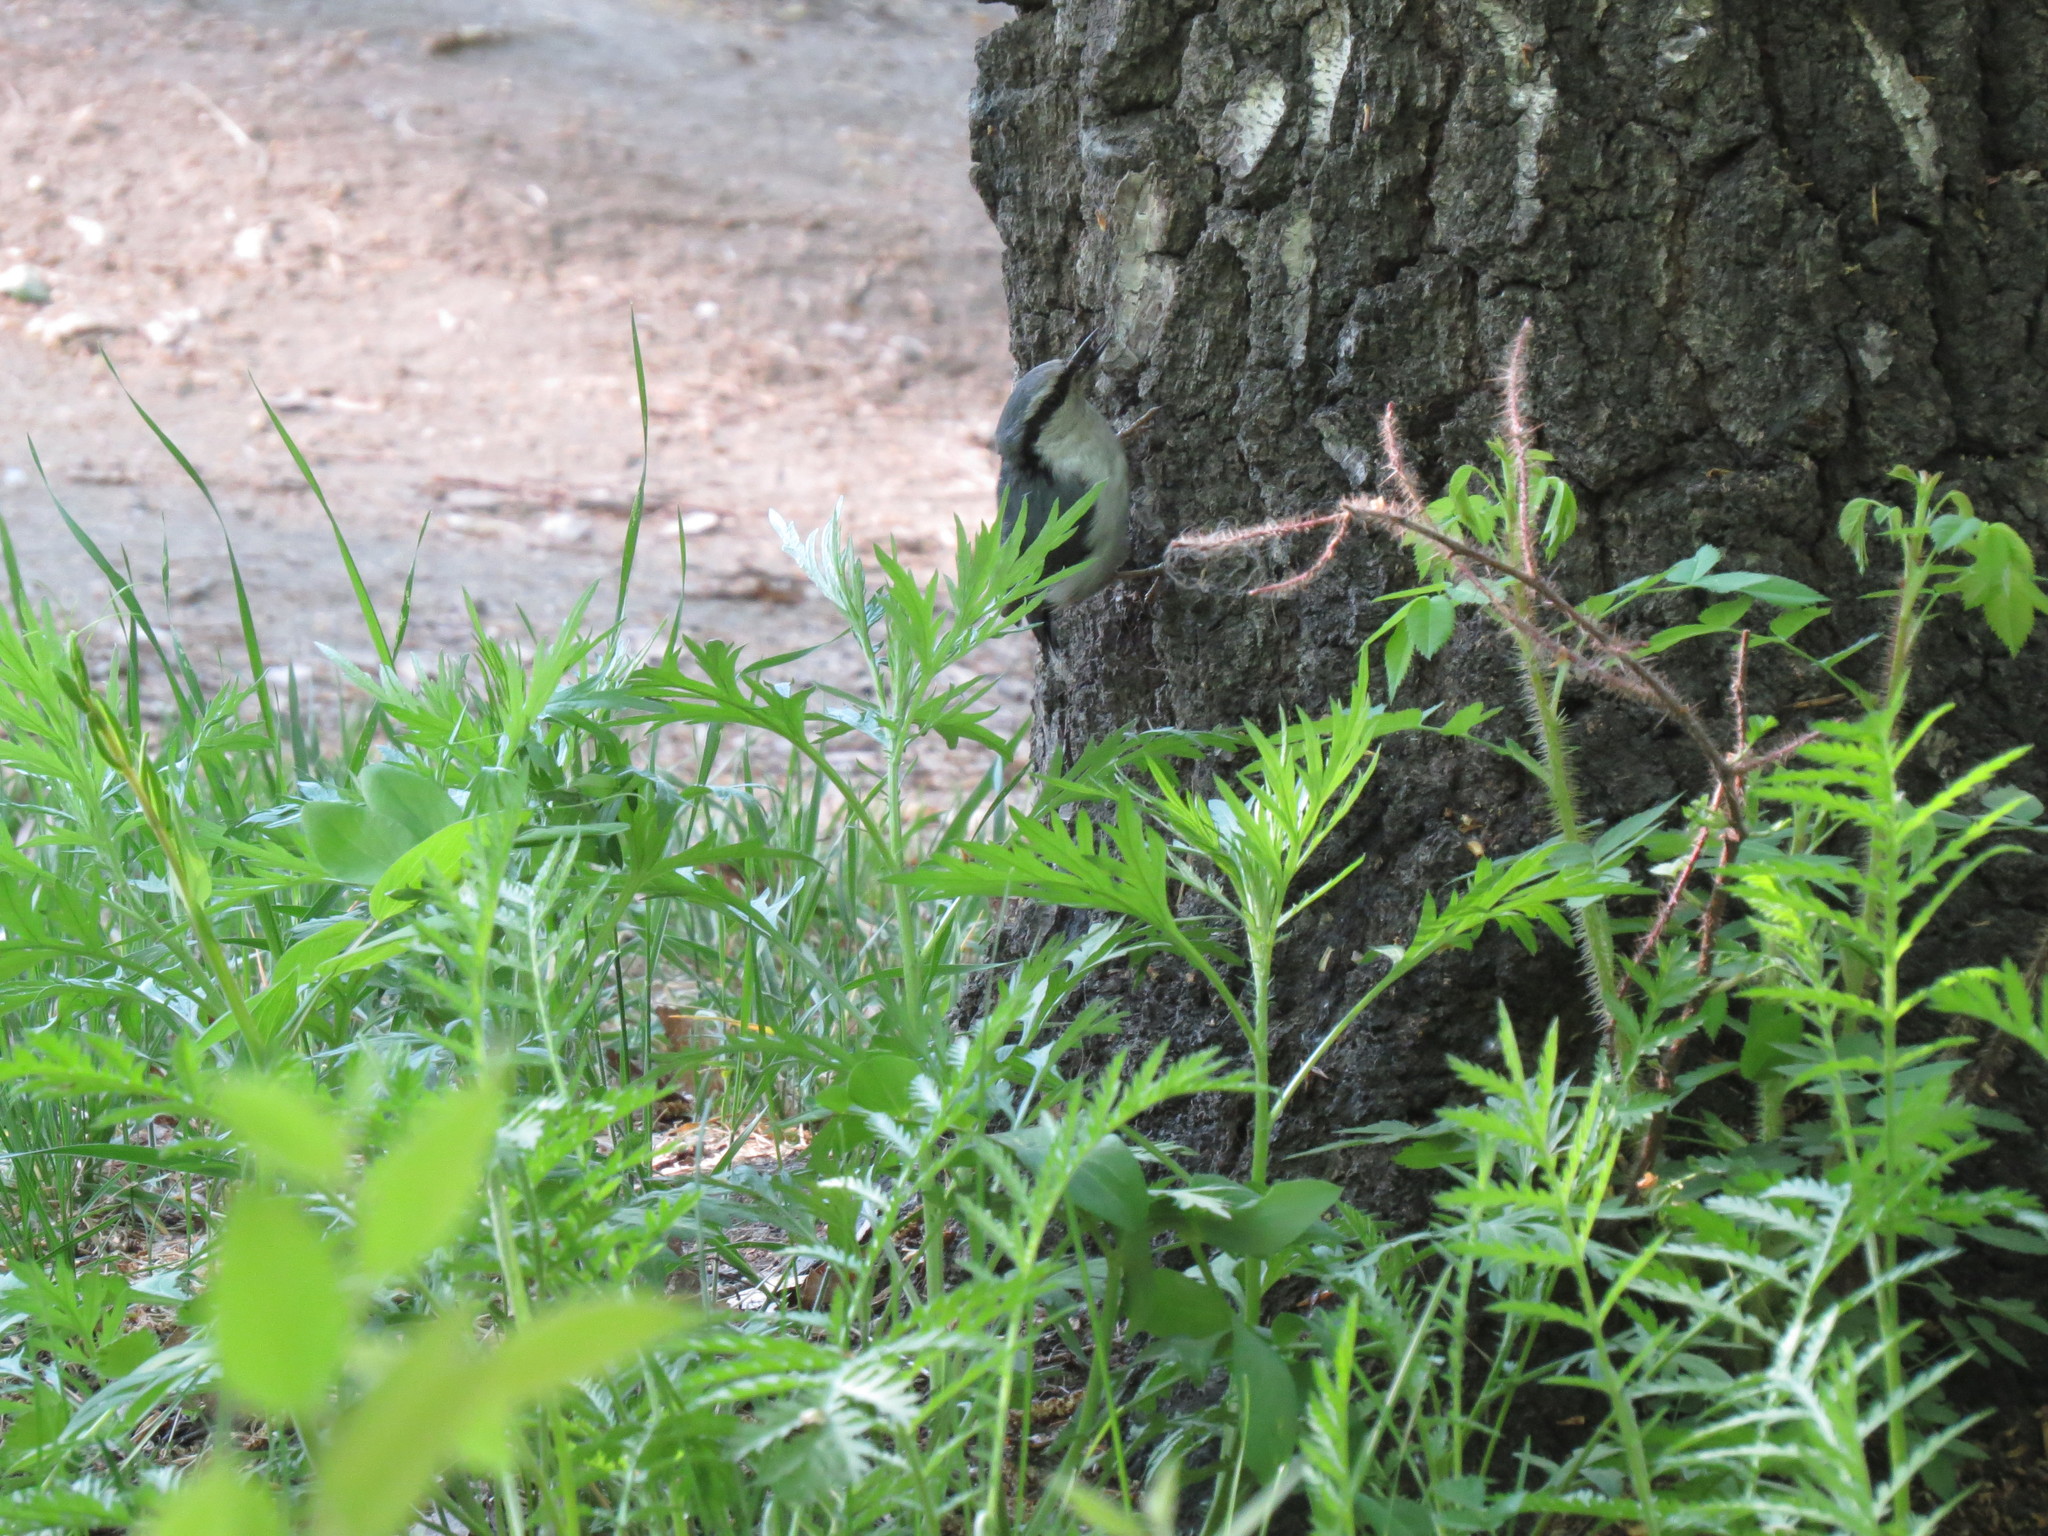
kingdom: Animalia
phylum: Chordata
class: Aves
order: Passeriformes
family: Sittidae
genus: Sitta
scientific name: Sitta europaea
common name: Eurasian nuthatch
